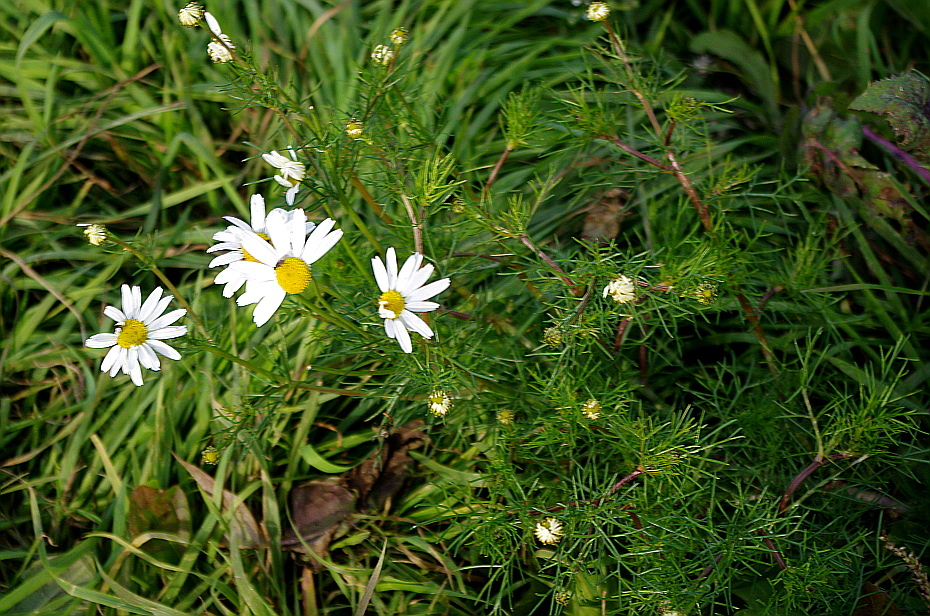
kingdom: Plantae
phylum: Tracheophyta
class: Magnoliopsida
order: Asterales
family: Asteraceae
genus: Tripleurospermum
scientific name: Tripleurospermum inodorum
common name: Scentless mayweed
